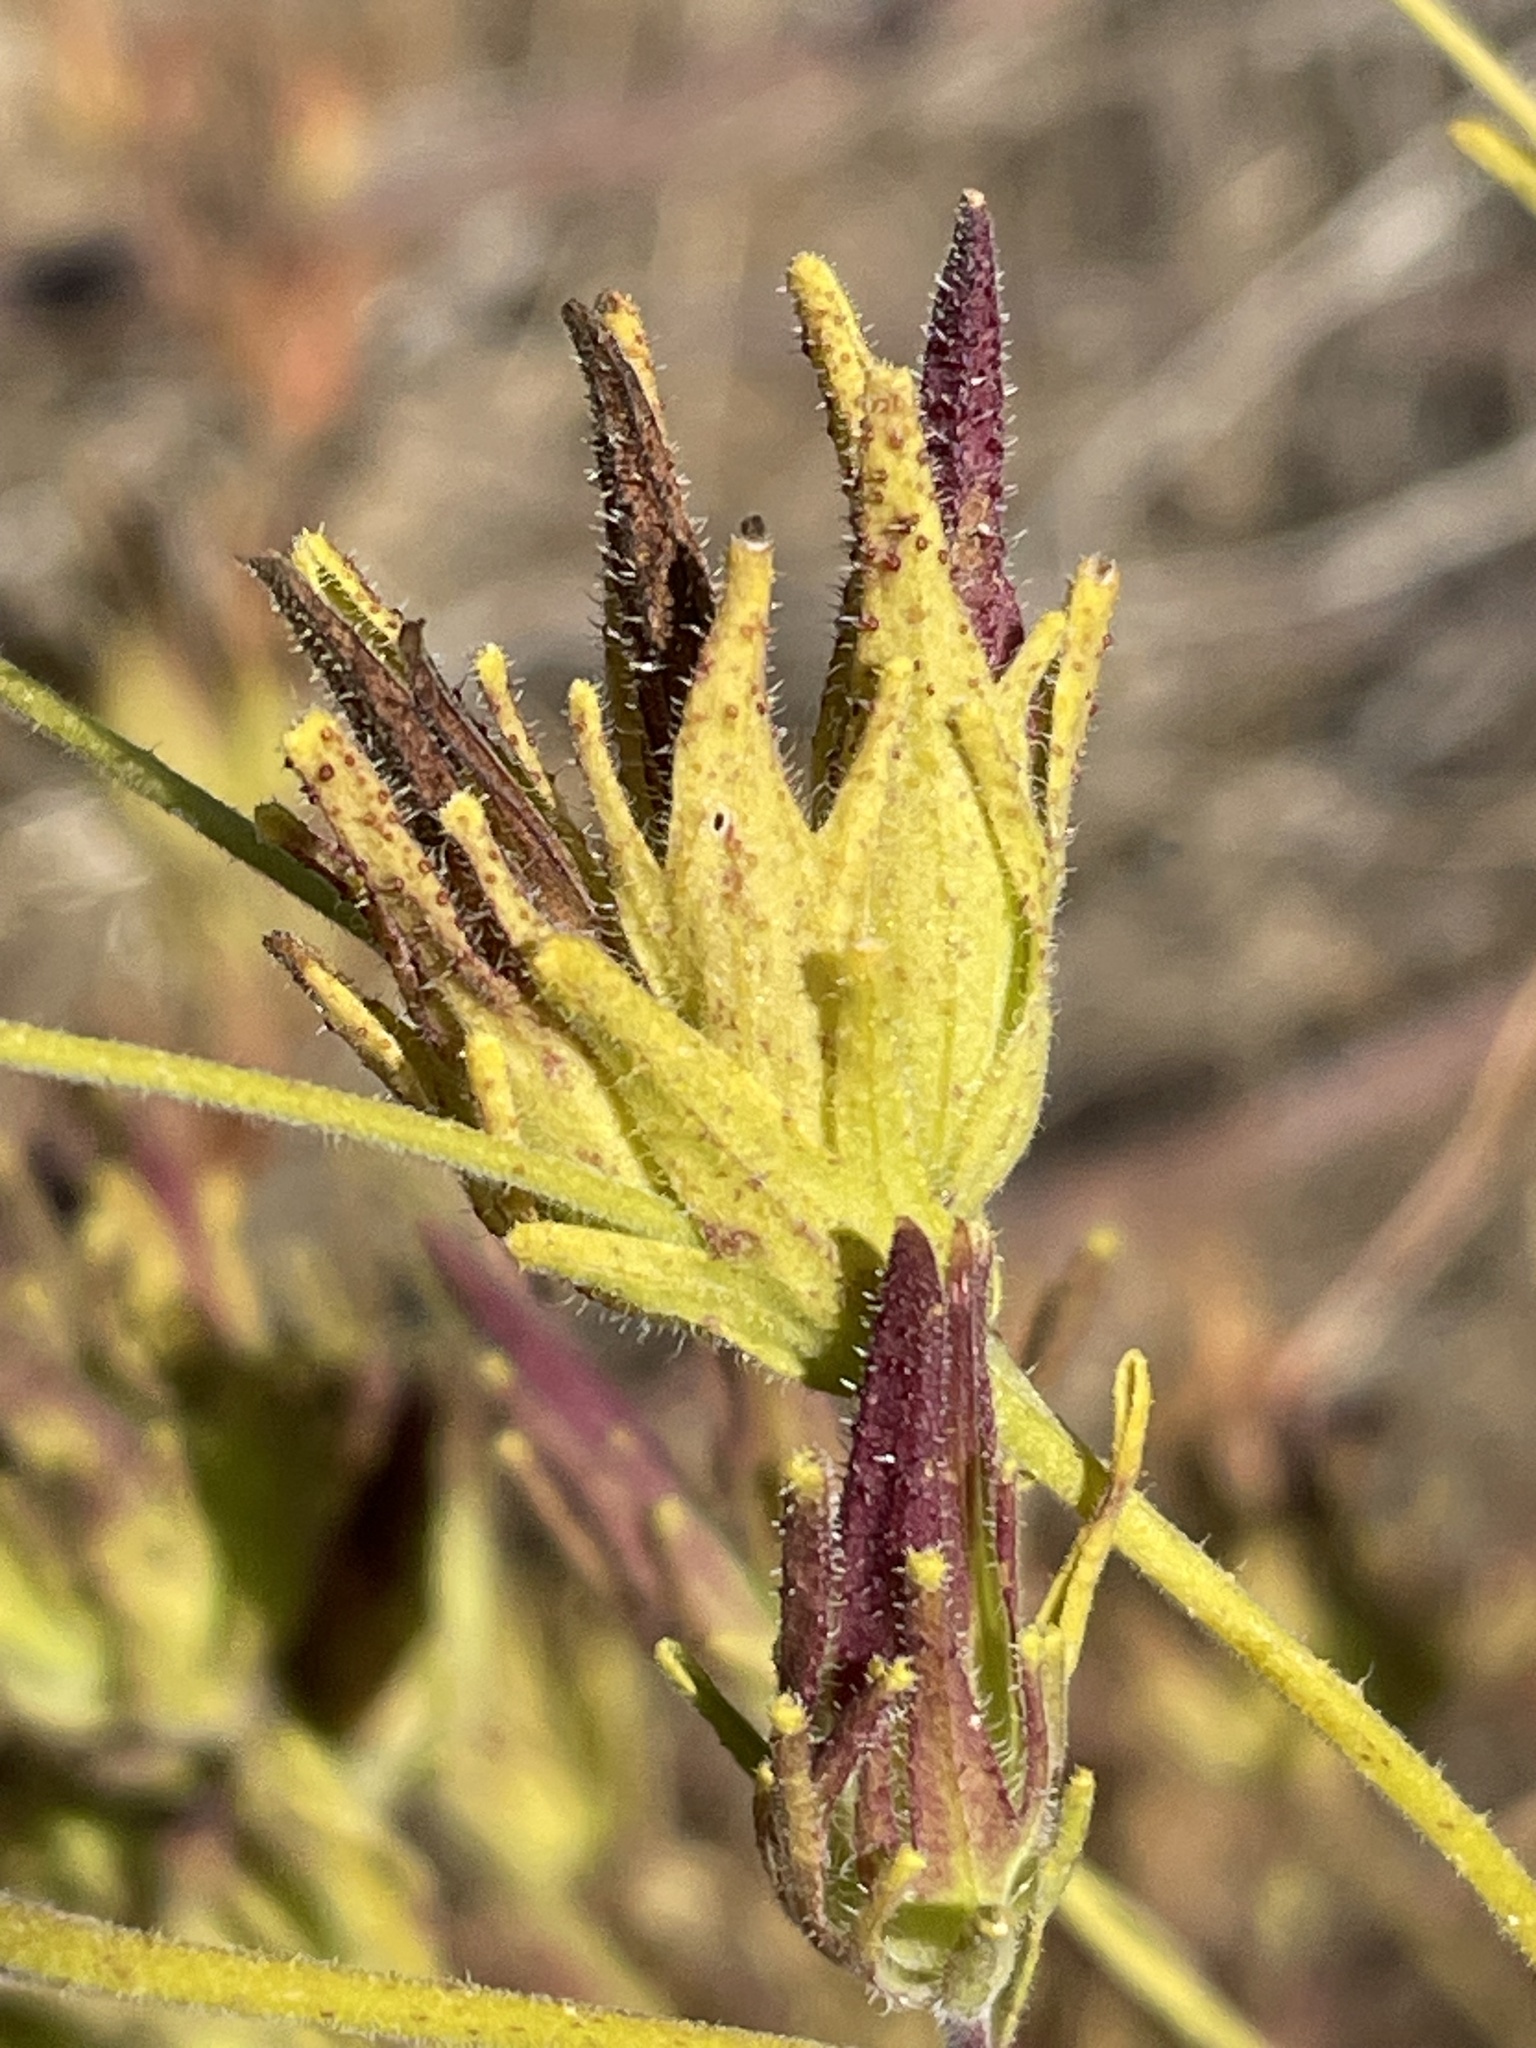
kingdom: Plantae
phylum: Tracheophyta
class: Magnoliopsida
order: Lamiales
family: Orobanchaceae
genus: Cordylanthus
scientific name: Cordylanthus rigidus
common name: Stiff-branch bird's-beak
